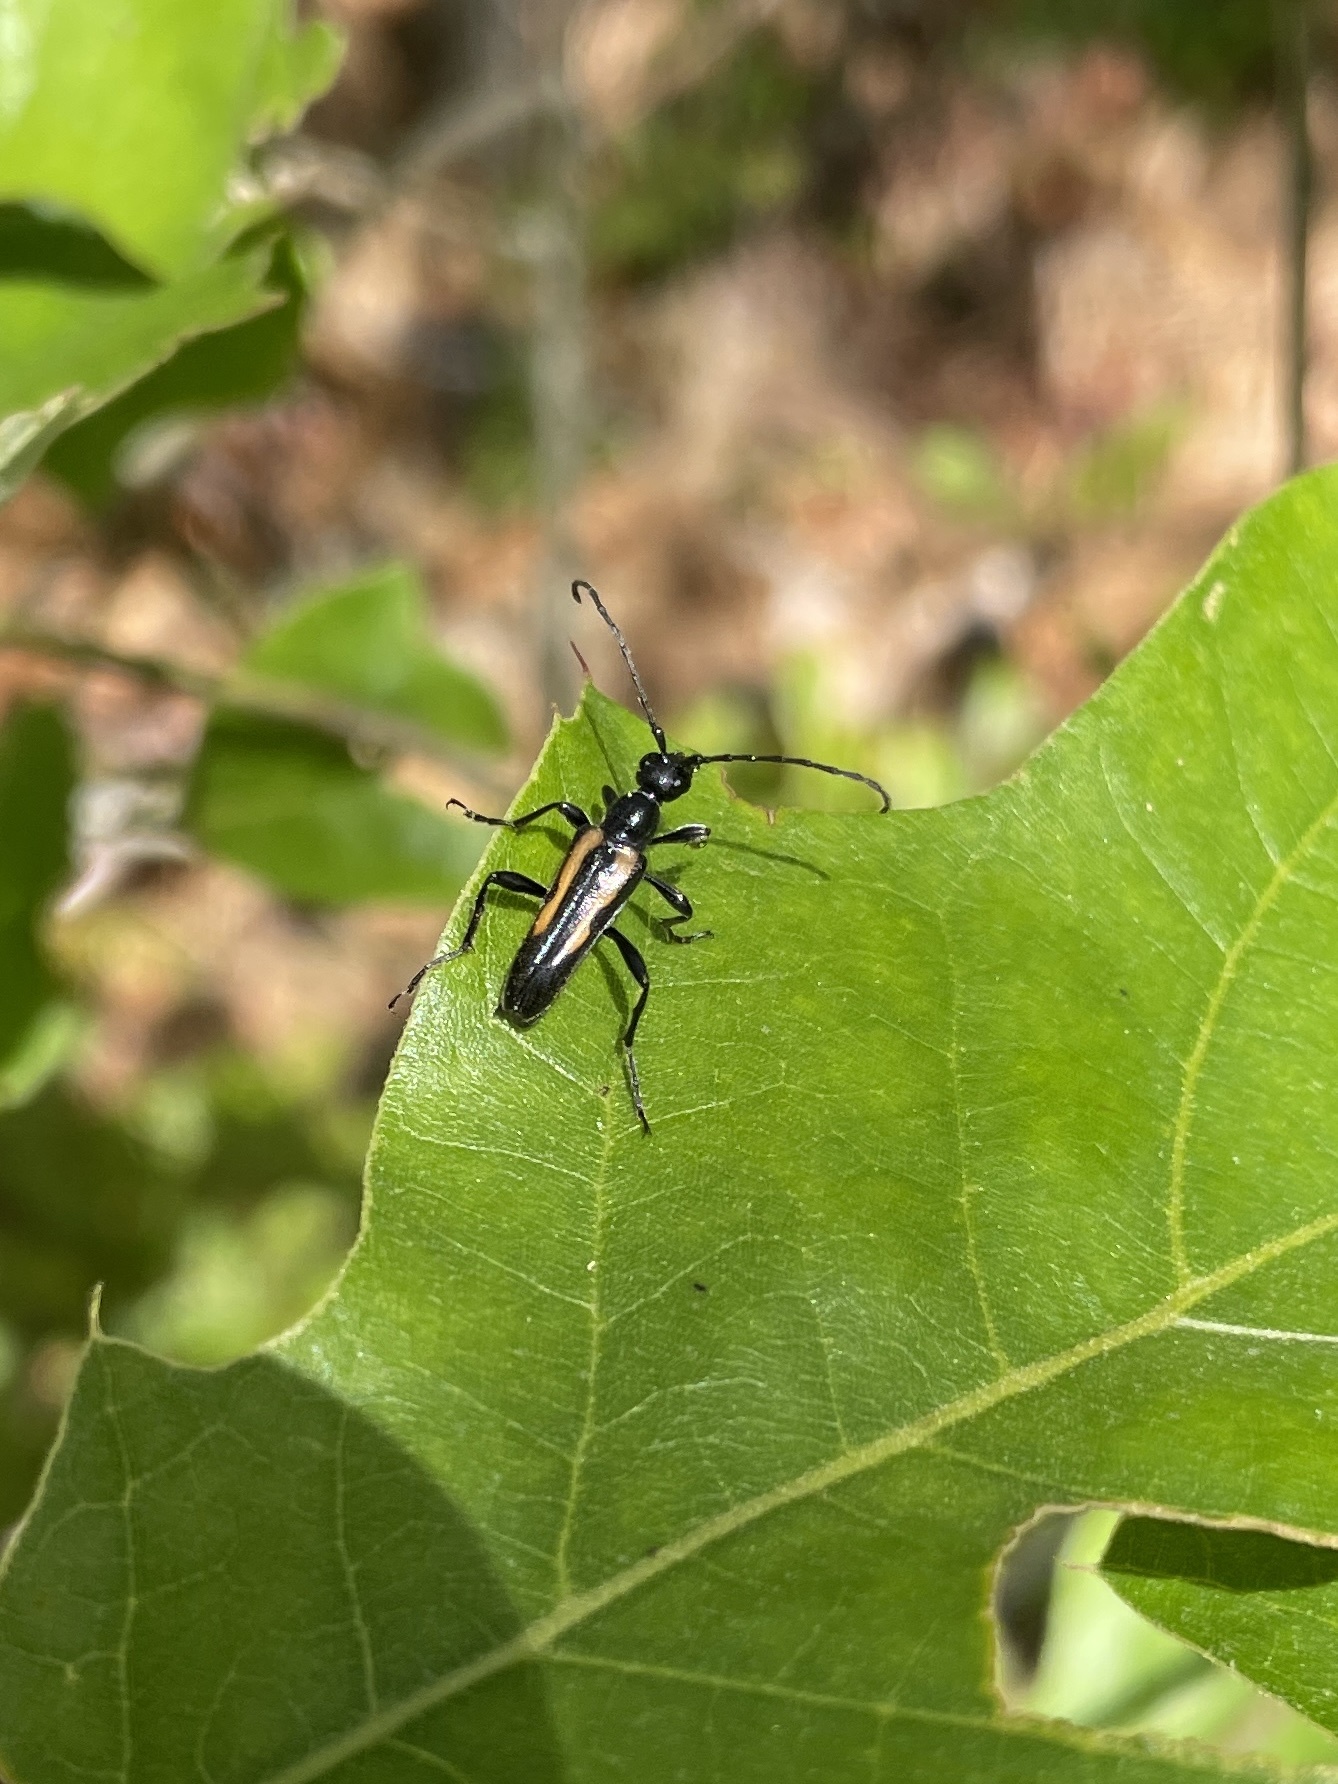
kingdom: Animalia
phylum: Arthropoda
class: Insecta
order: Coleoptera
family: Cerambycidae
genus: Strangalepta
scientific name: Strangalepta abbreviata
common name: Strangalepta flower longhorn beetle
